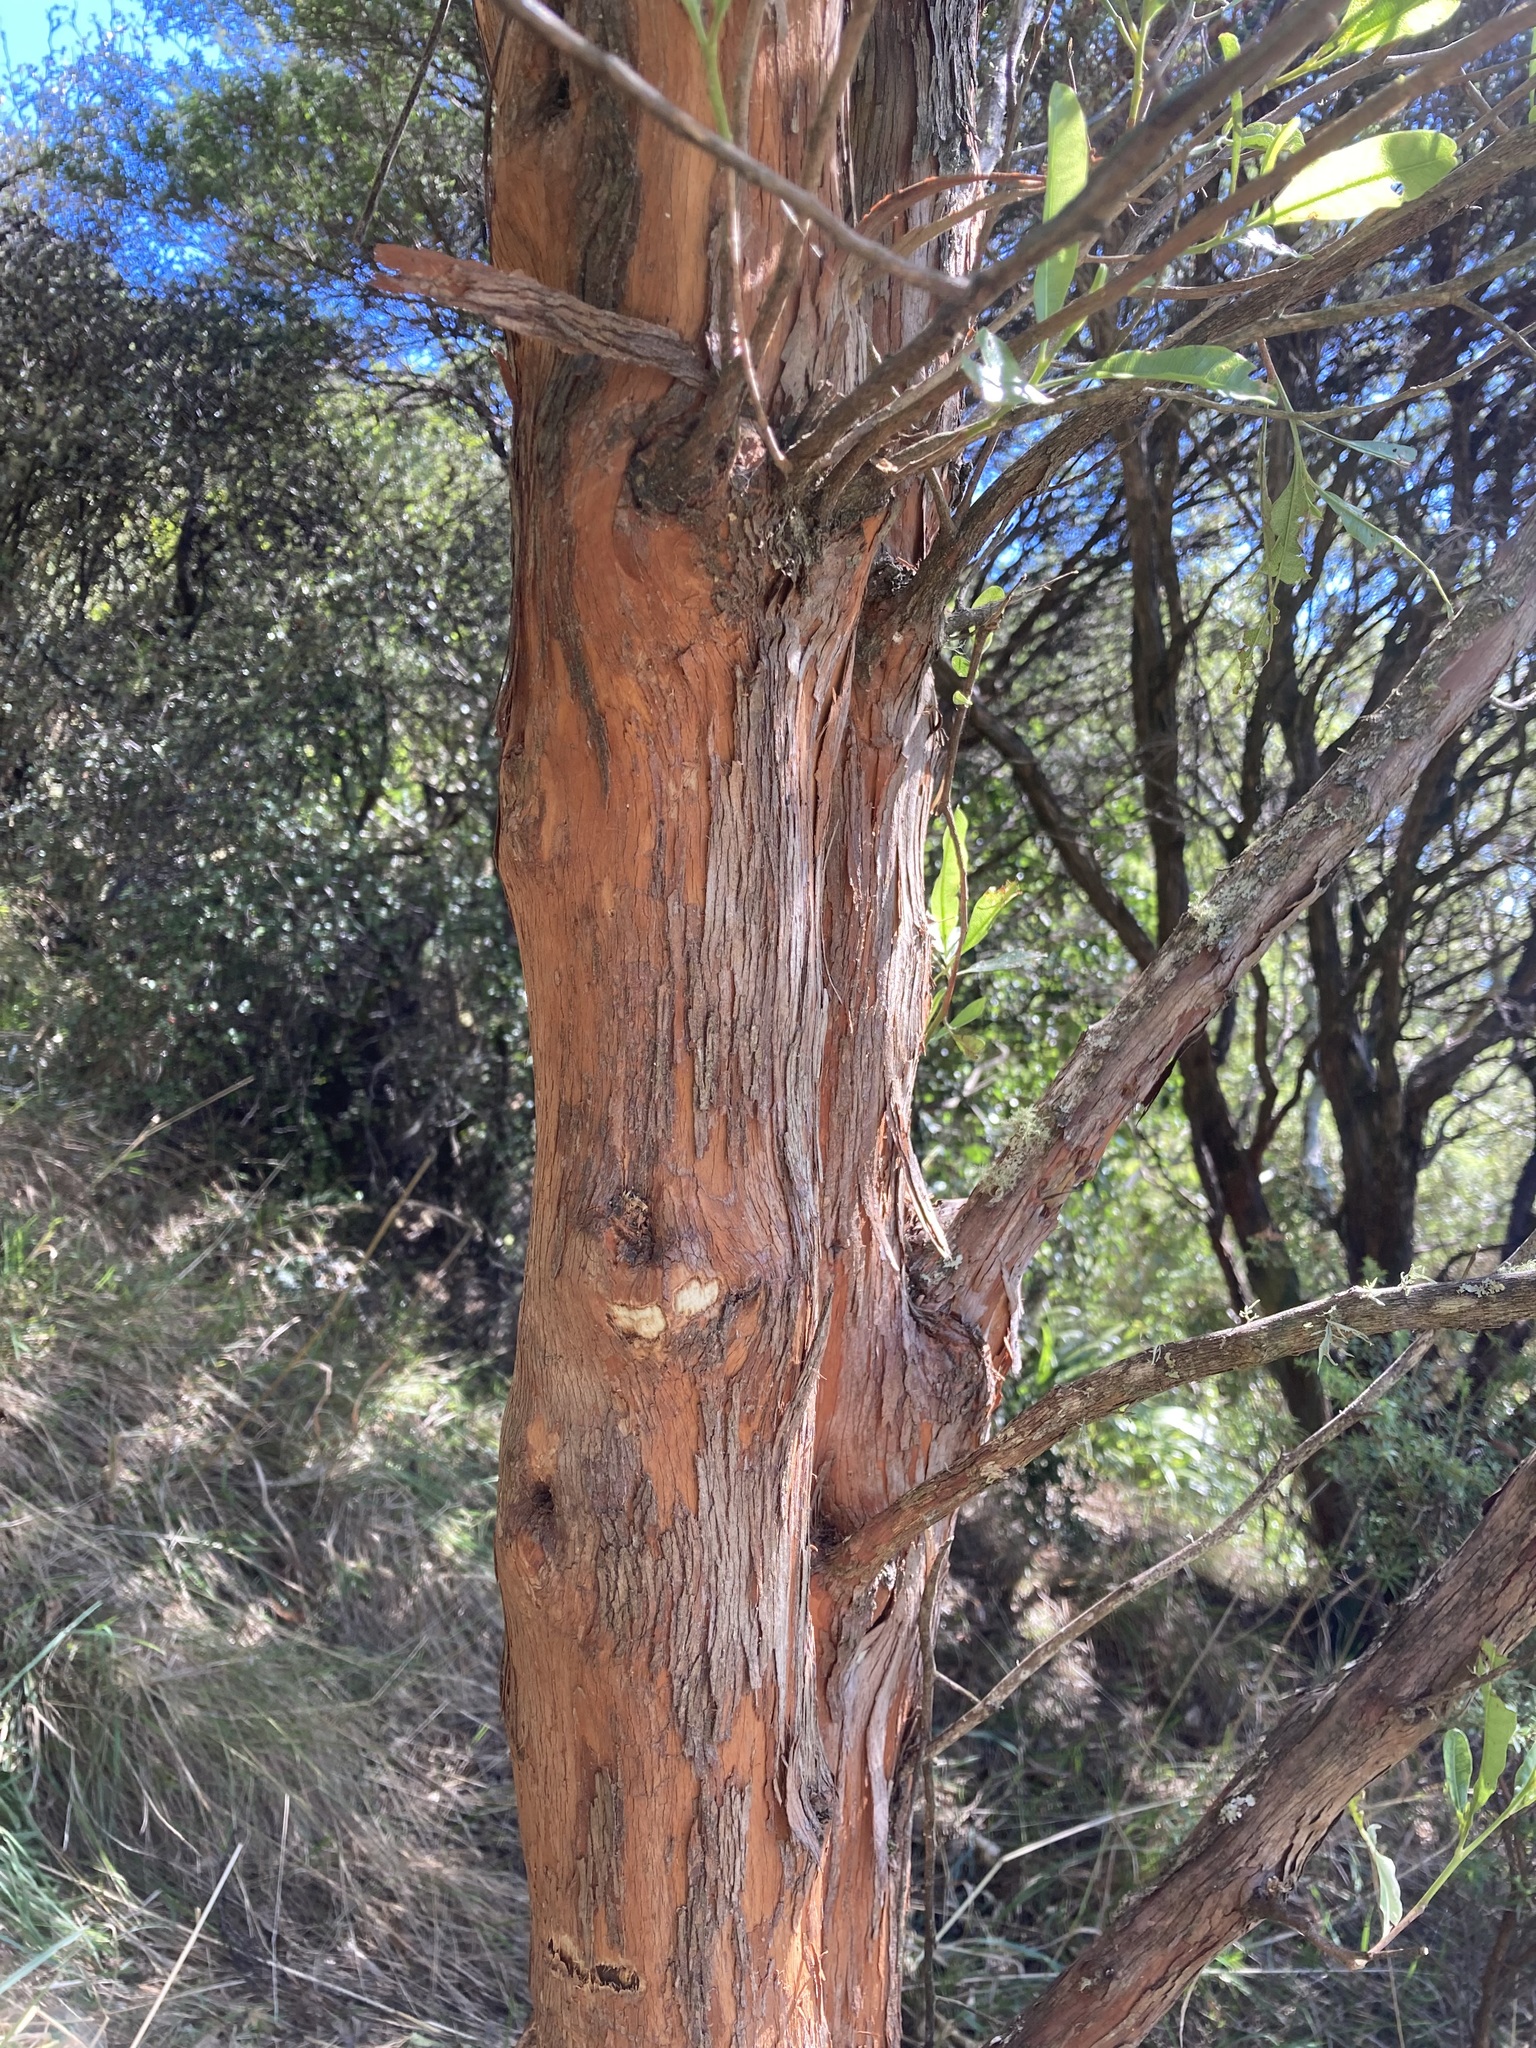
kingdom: Plantae
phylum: Tracheophyta
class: Magnoliopsida
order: Sapindales
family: Sapindaceae
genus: Dodonaea
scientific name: Dodonaea viscosa
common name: Hopbush
